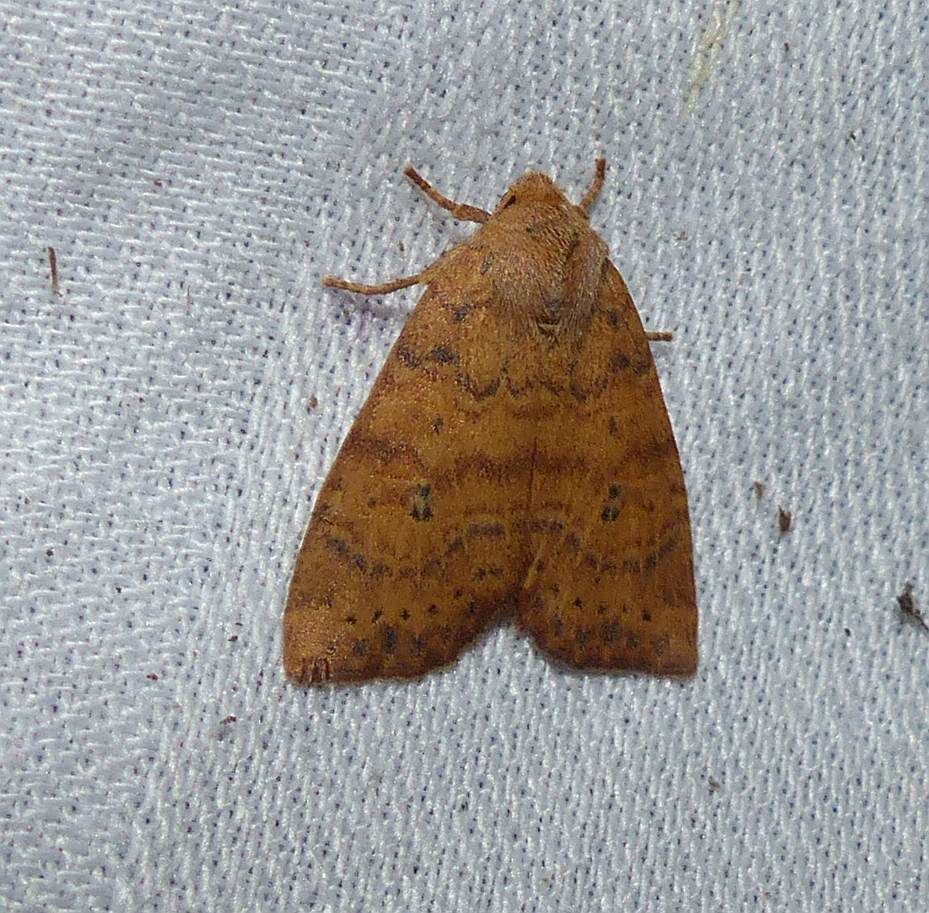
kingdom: Animalia
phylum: Arthropoda
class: Insecta
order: Lepidoptera
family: Noctuidae
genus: Anathix
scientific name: Anathix ralla
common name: Dotted sallow
